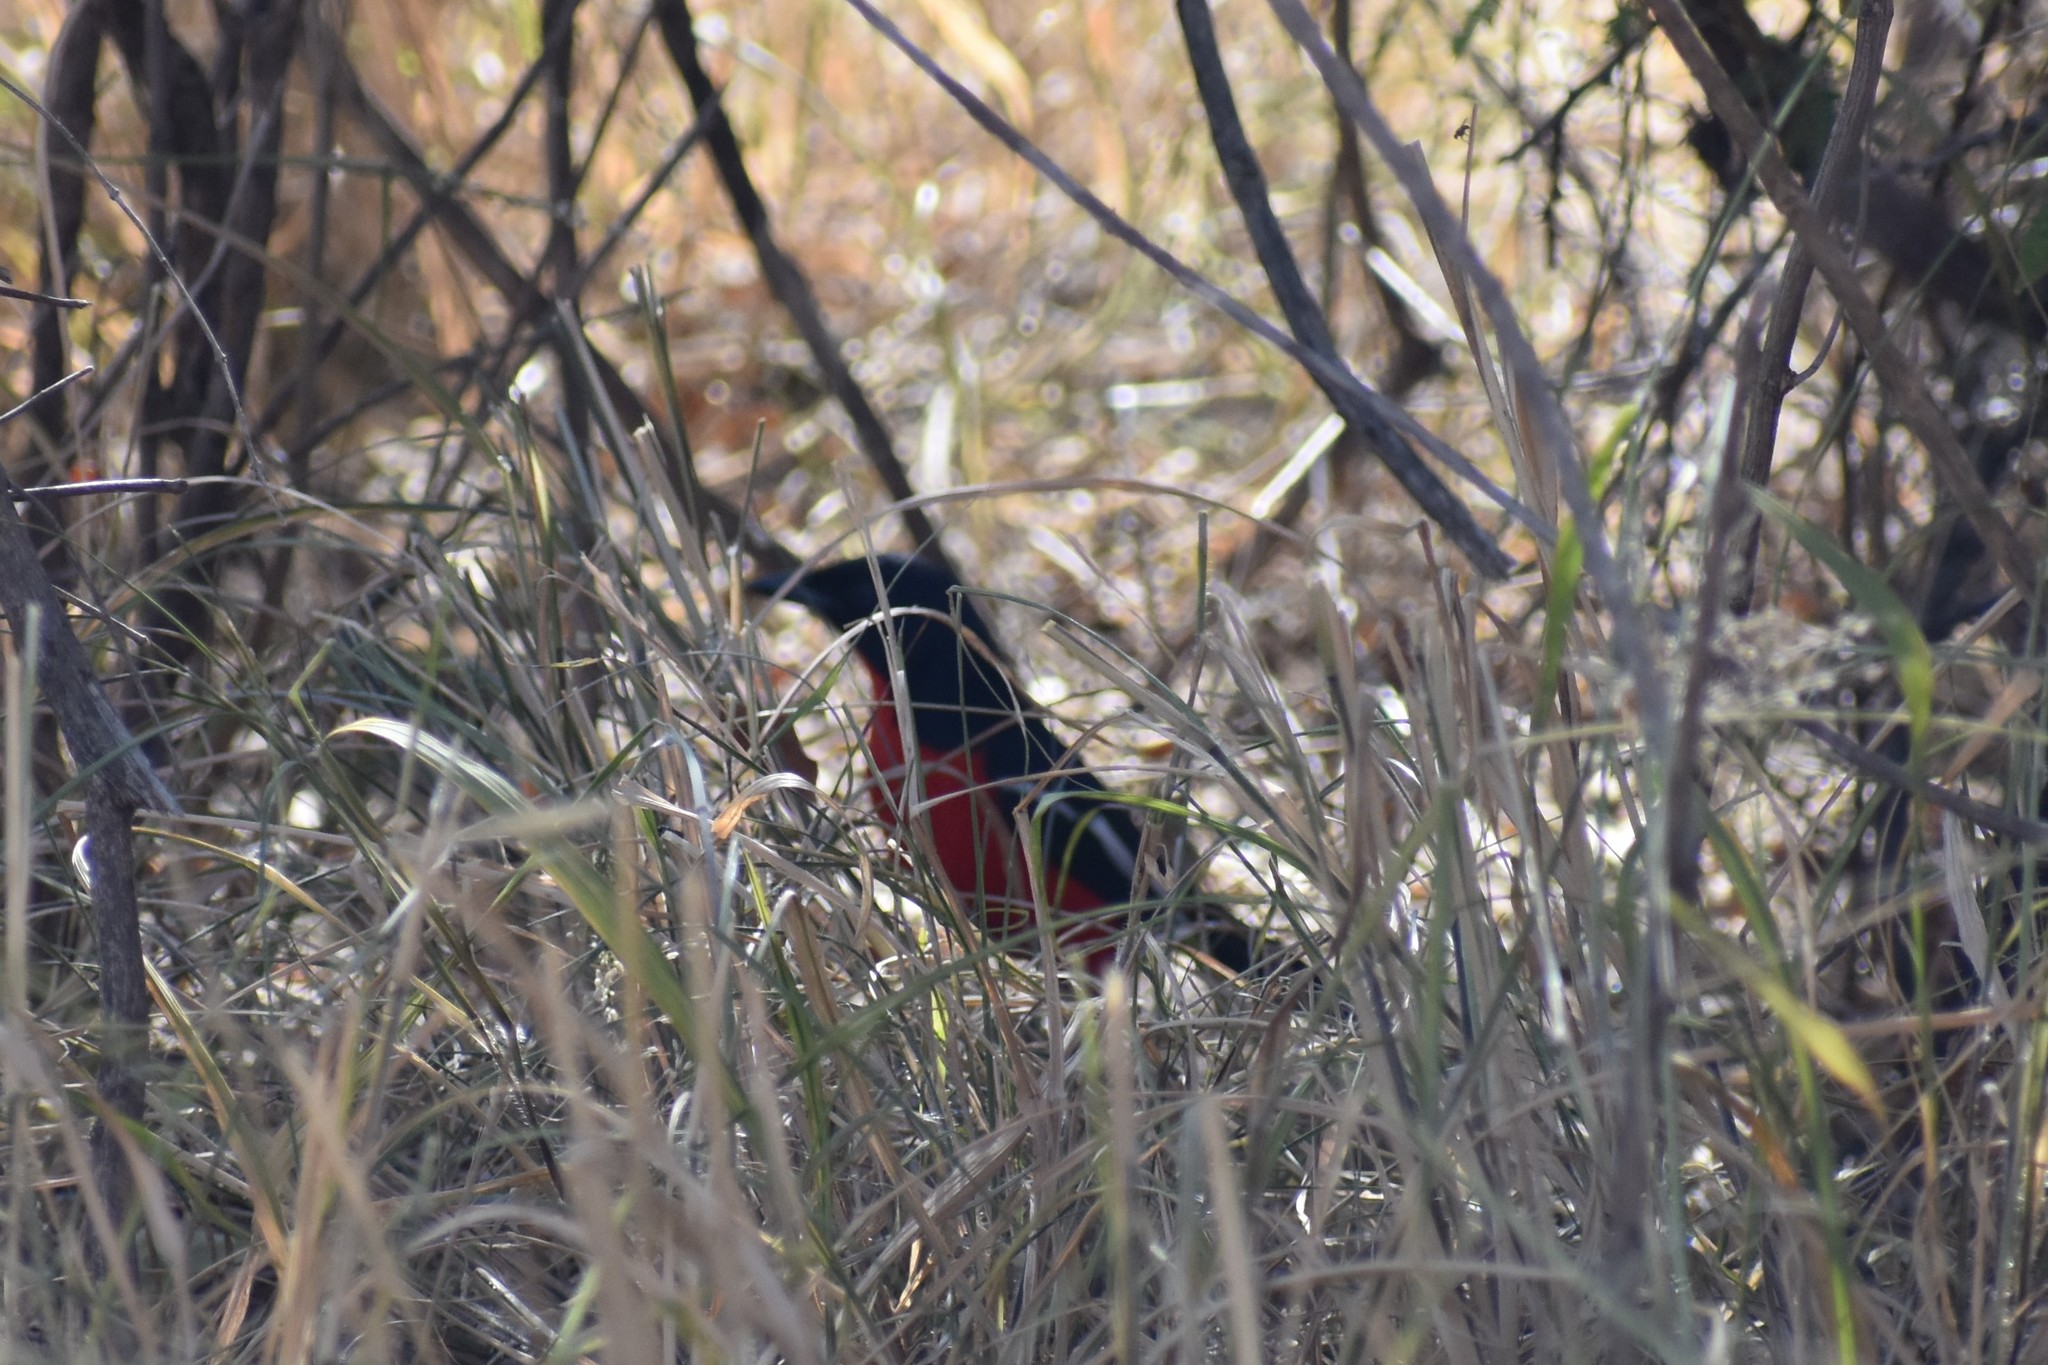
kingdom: Animalia
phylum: Chordata
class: Aves
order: Passeriformes
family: Malaconotidae
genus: Laniarius
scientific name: Laniarius atrococcineus
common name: Crimson-breasted shrike
